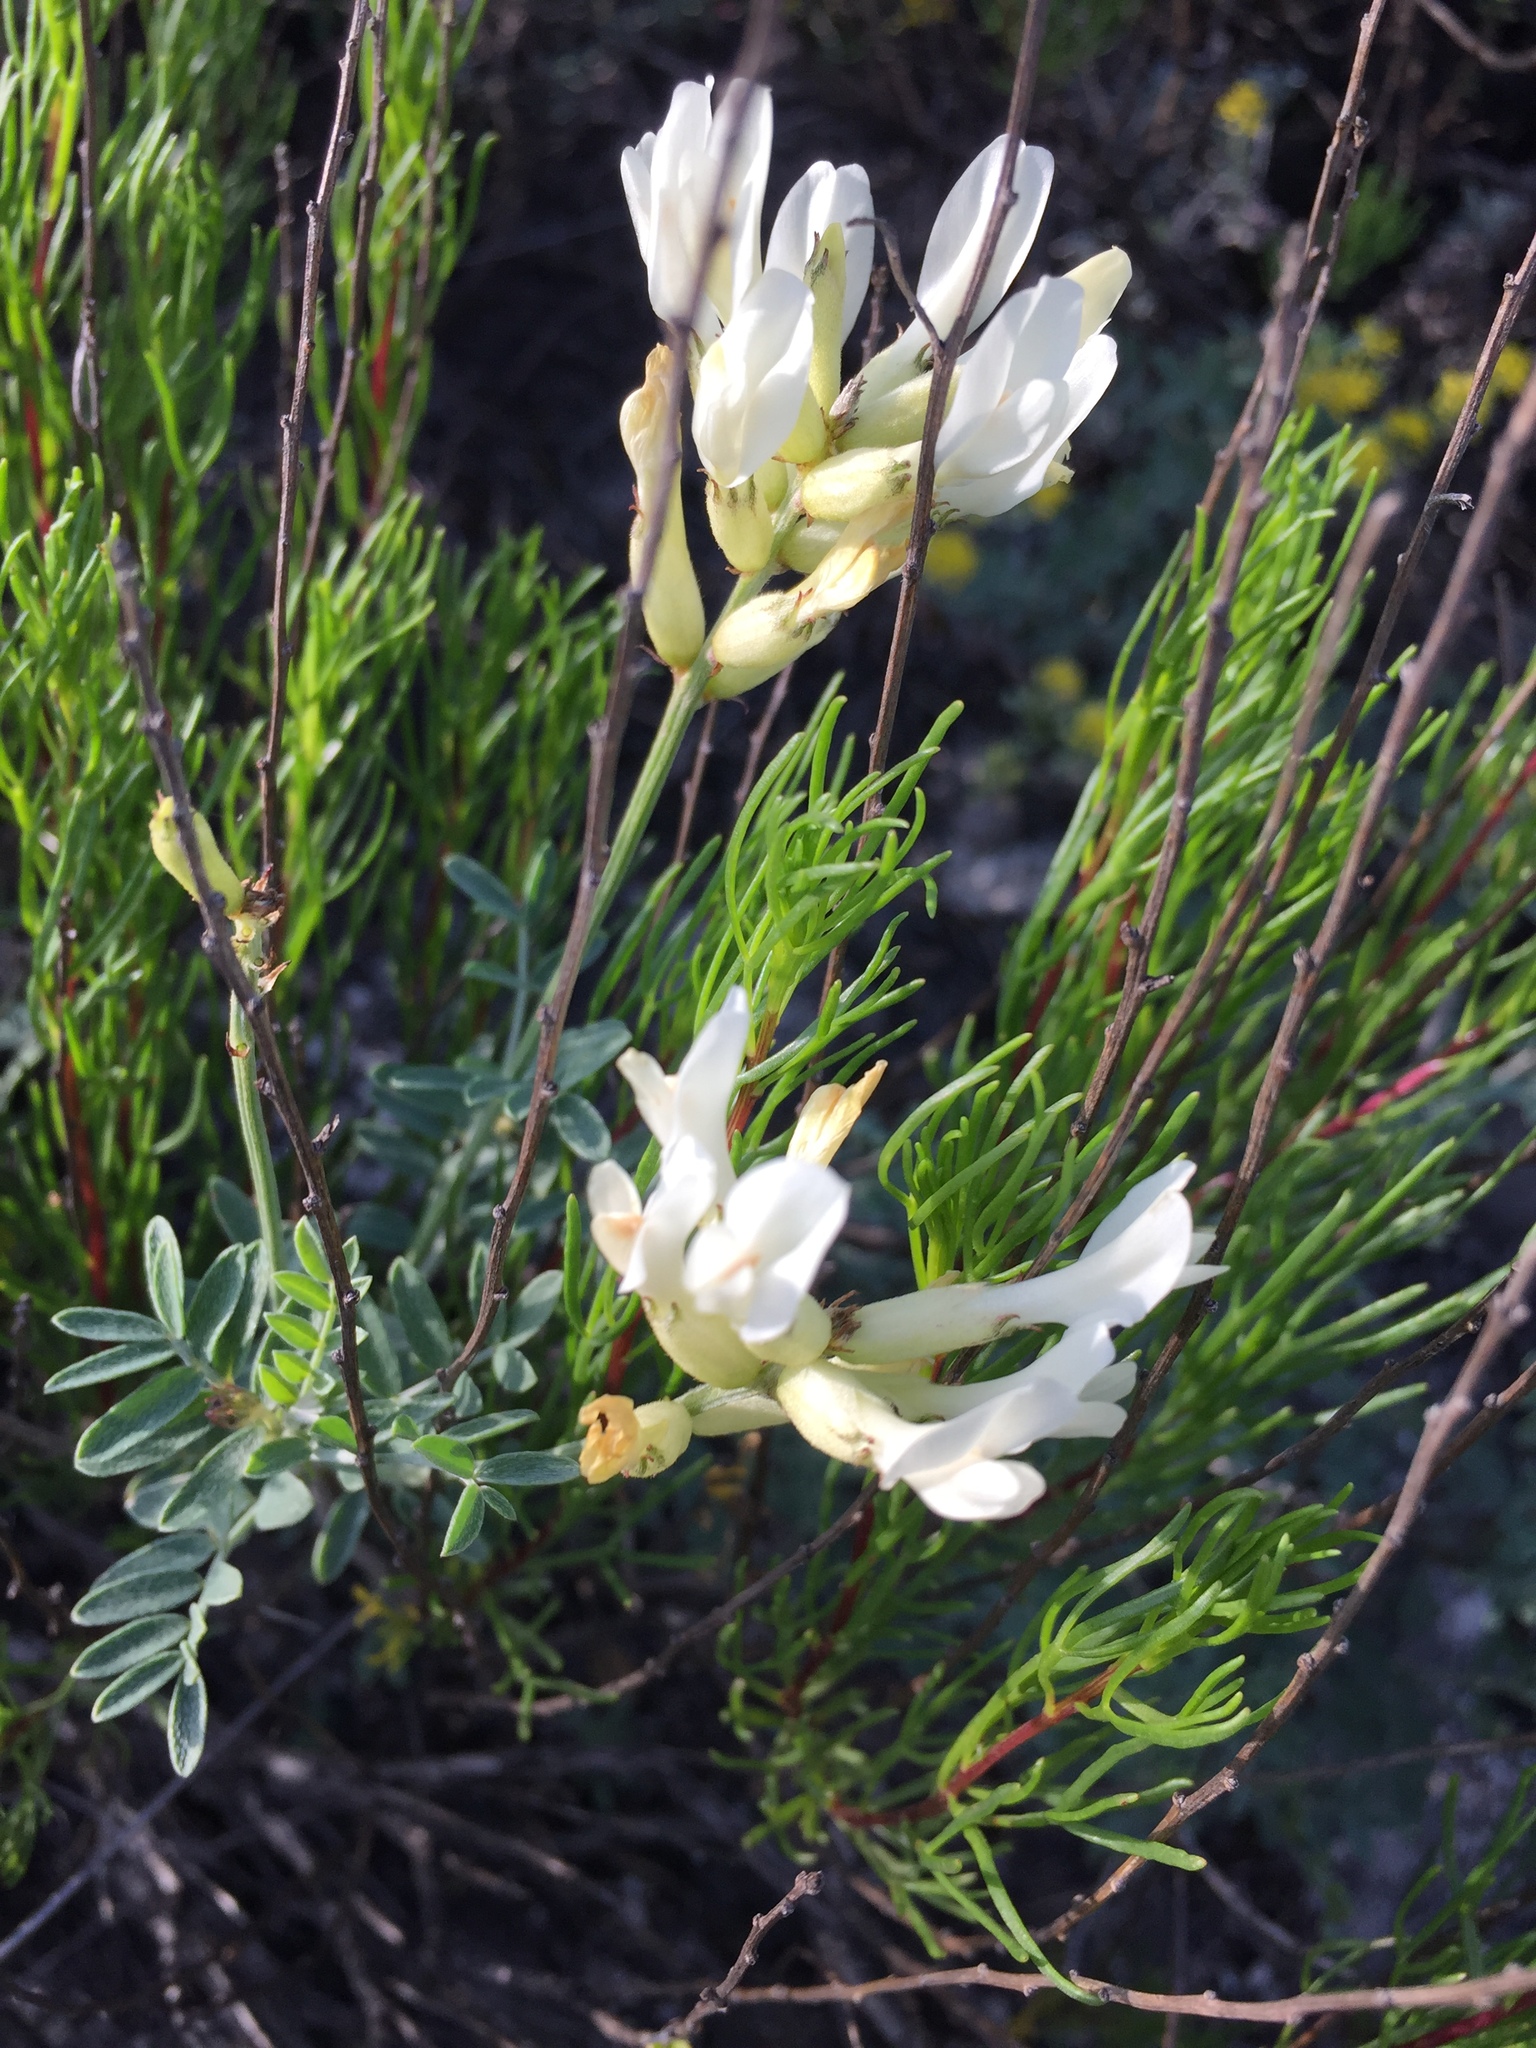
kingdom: Plantae
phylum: Tracheophyta
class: Magnoliopsida
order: Fabales
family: Fabaceae
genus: Astragalus
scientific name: Astragalus albicaulis
